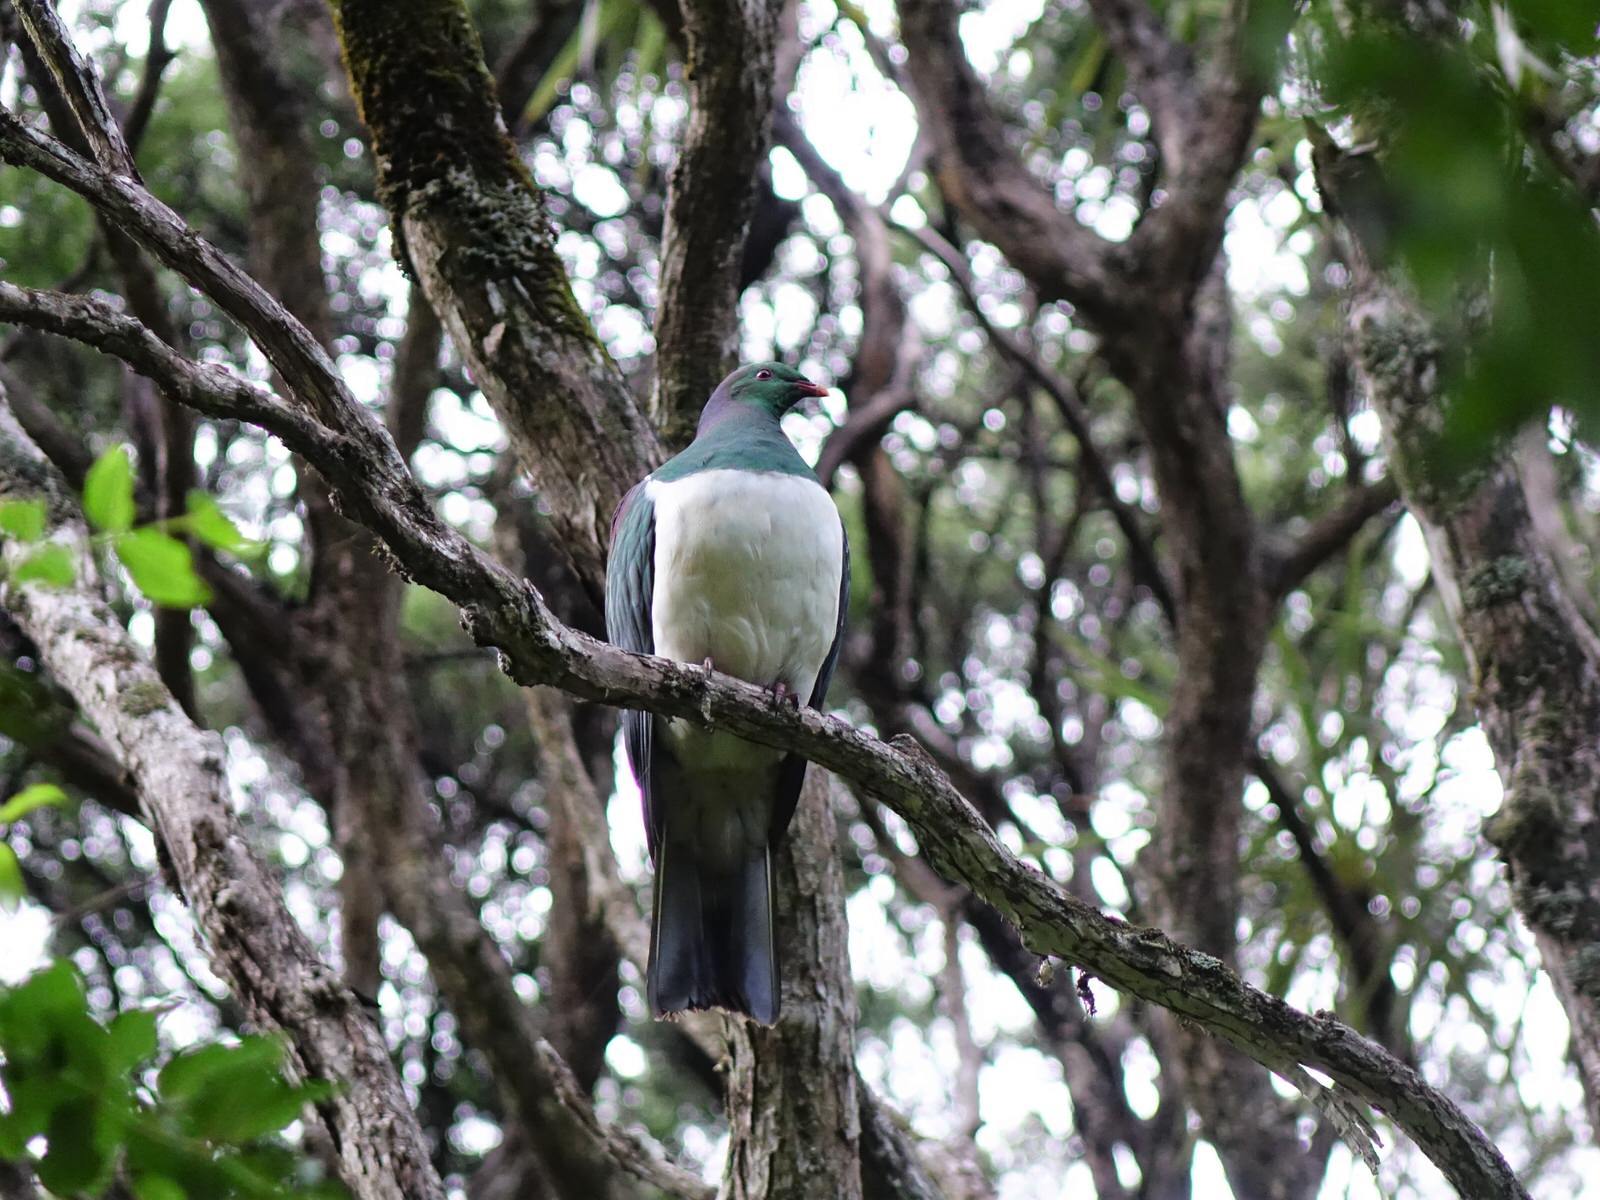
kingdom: Animalia
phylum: Chordata
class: Aves
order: Columbiformes
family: Columbidae
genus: Hemiphaga
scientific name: Hemiphaga novaeseelandiae
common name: New zealand pigeon
